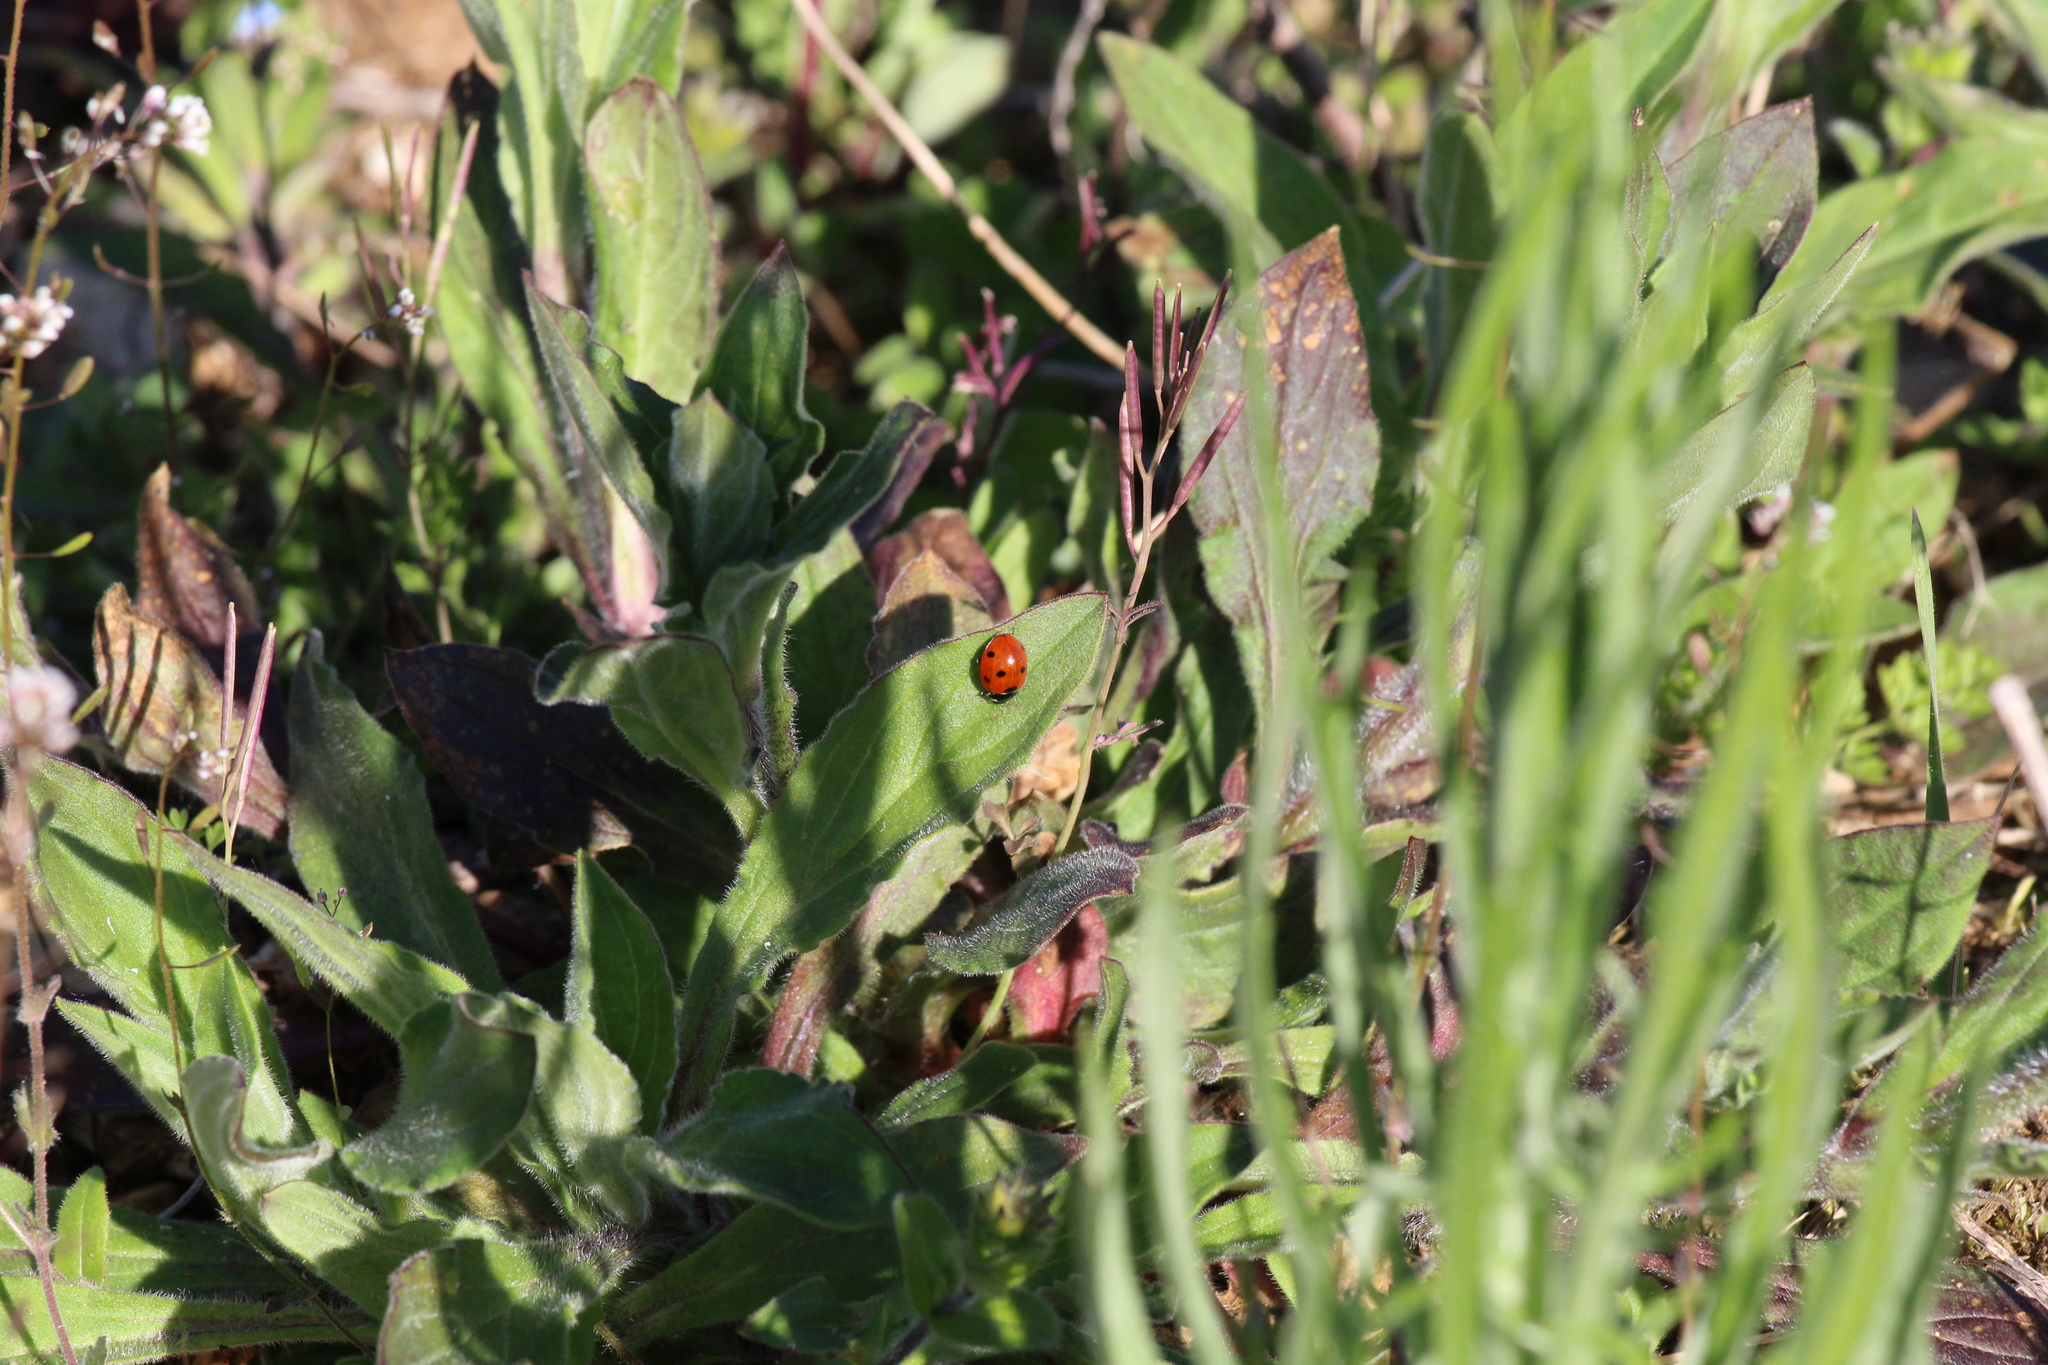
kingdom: Animalia
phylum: Arthropoda
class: Insecta
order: Coleoptera
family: Coccinellidae
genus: Coccinella
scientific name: Coccinella septempunctata
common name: Sevenspotted lady beetle
